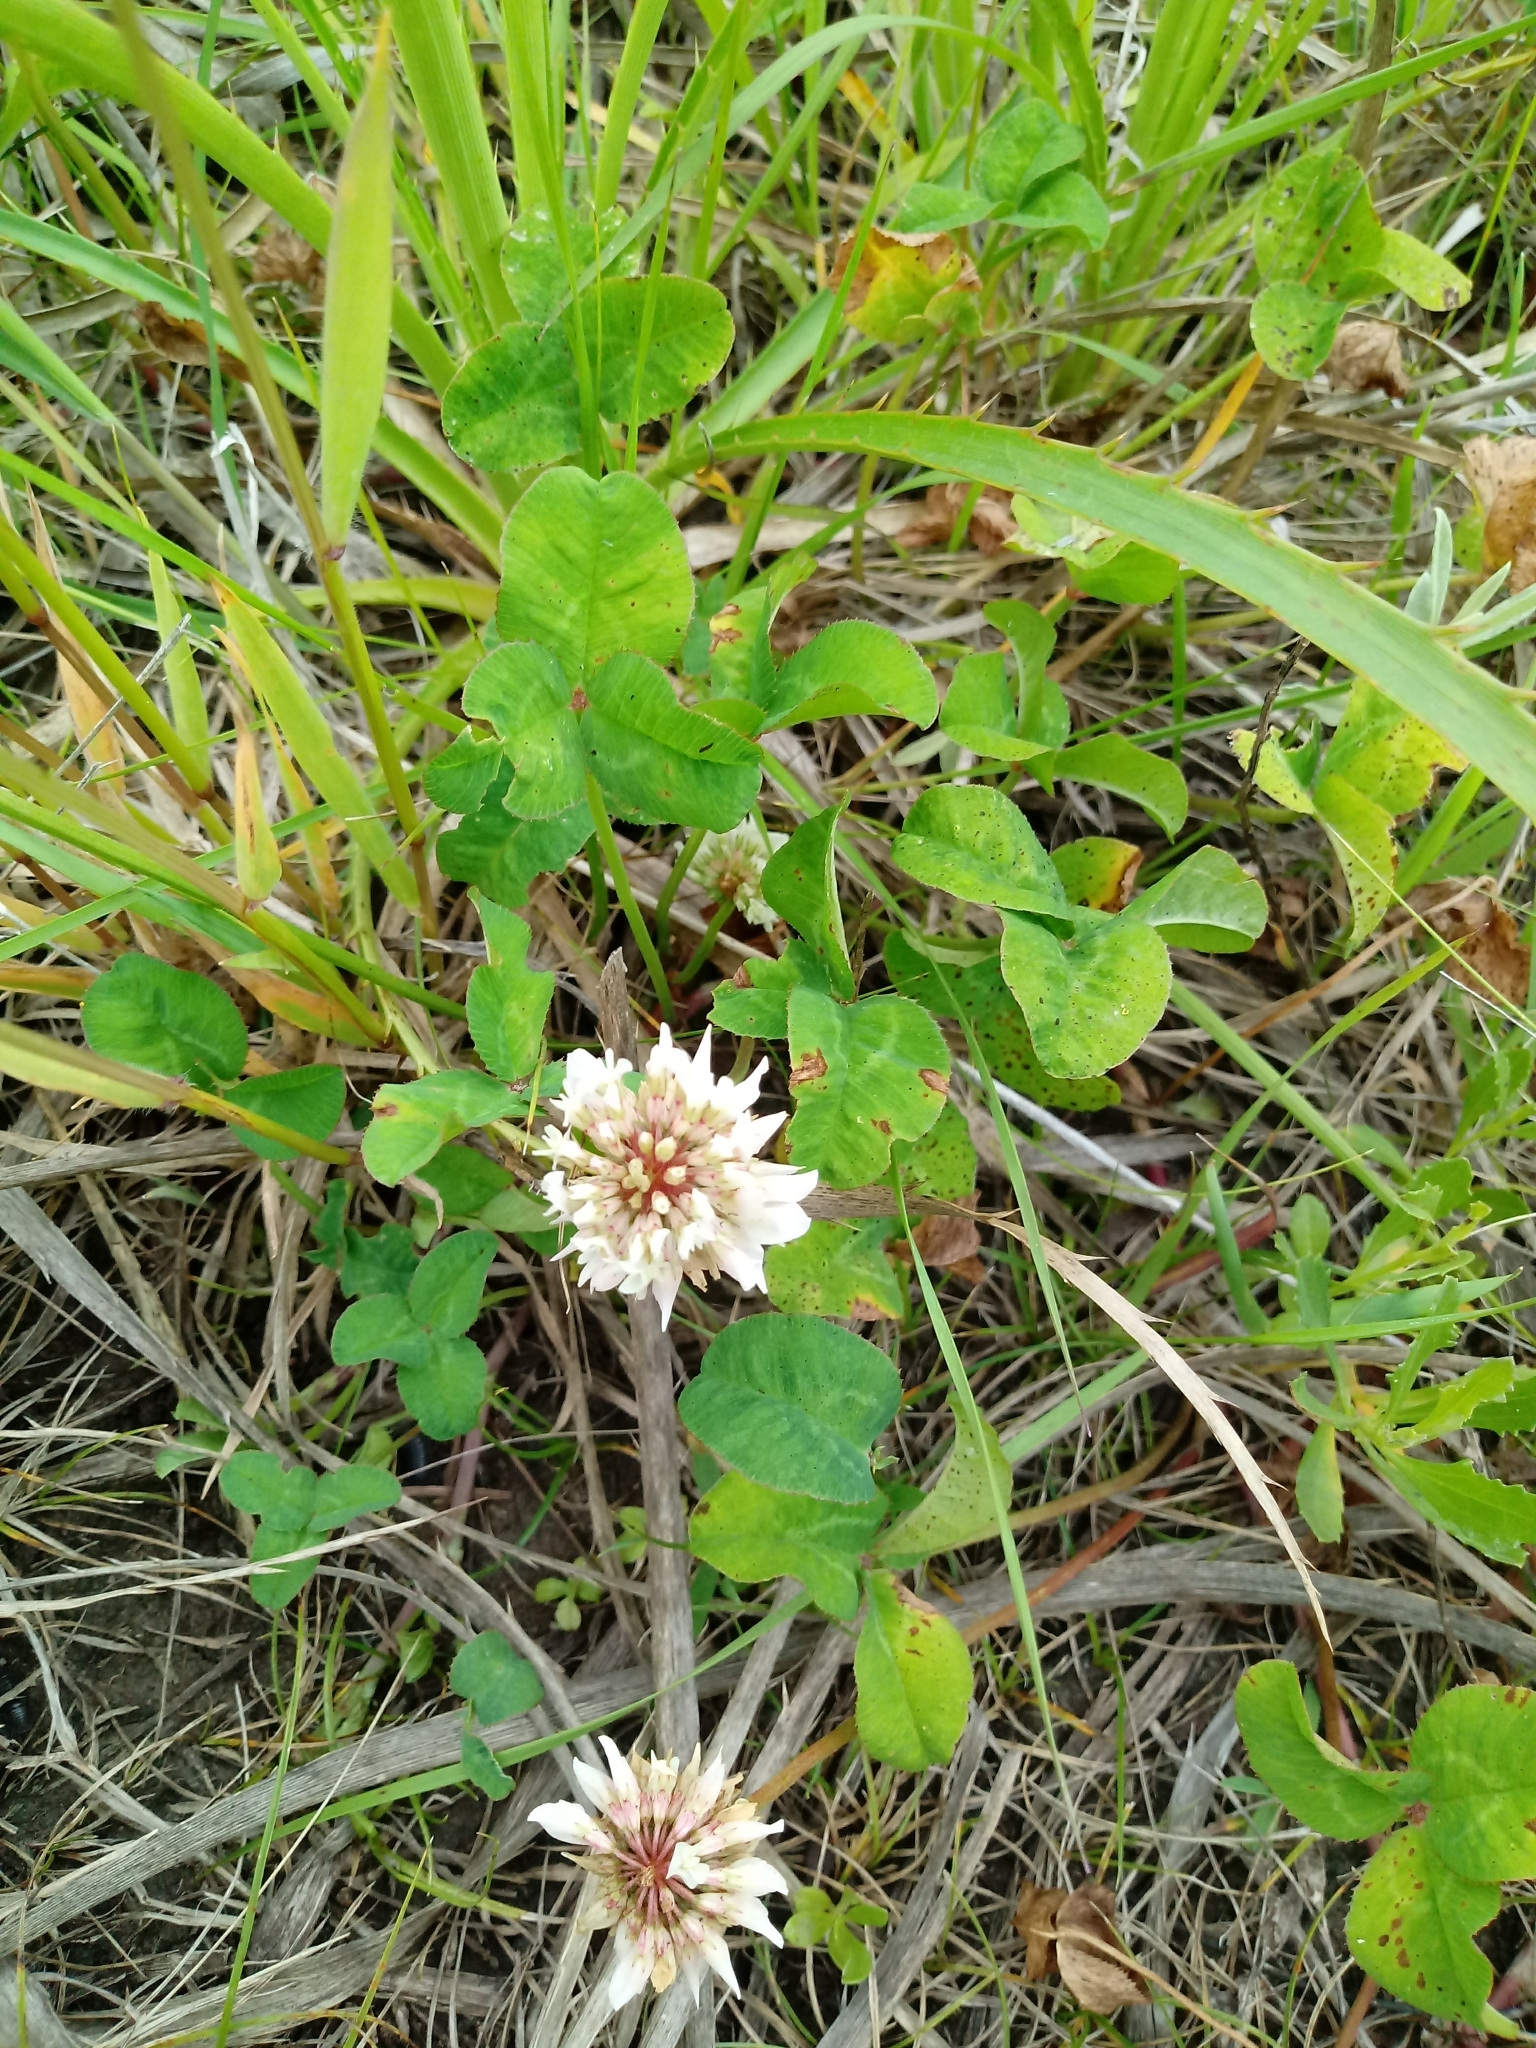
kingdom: Plantae
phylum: Tracheophyta
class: Magnoliopsida
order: Fabales
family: Fabaceae
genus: Trifolium
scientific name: Trifolium repens
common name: White clover
